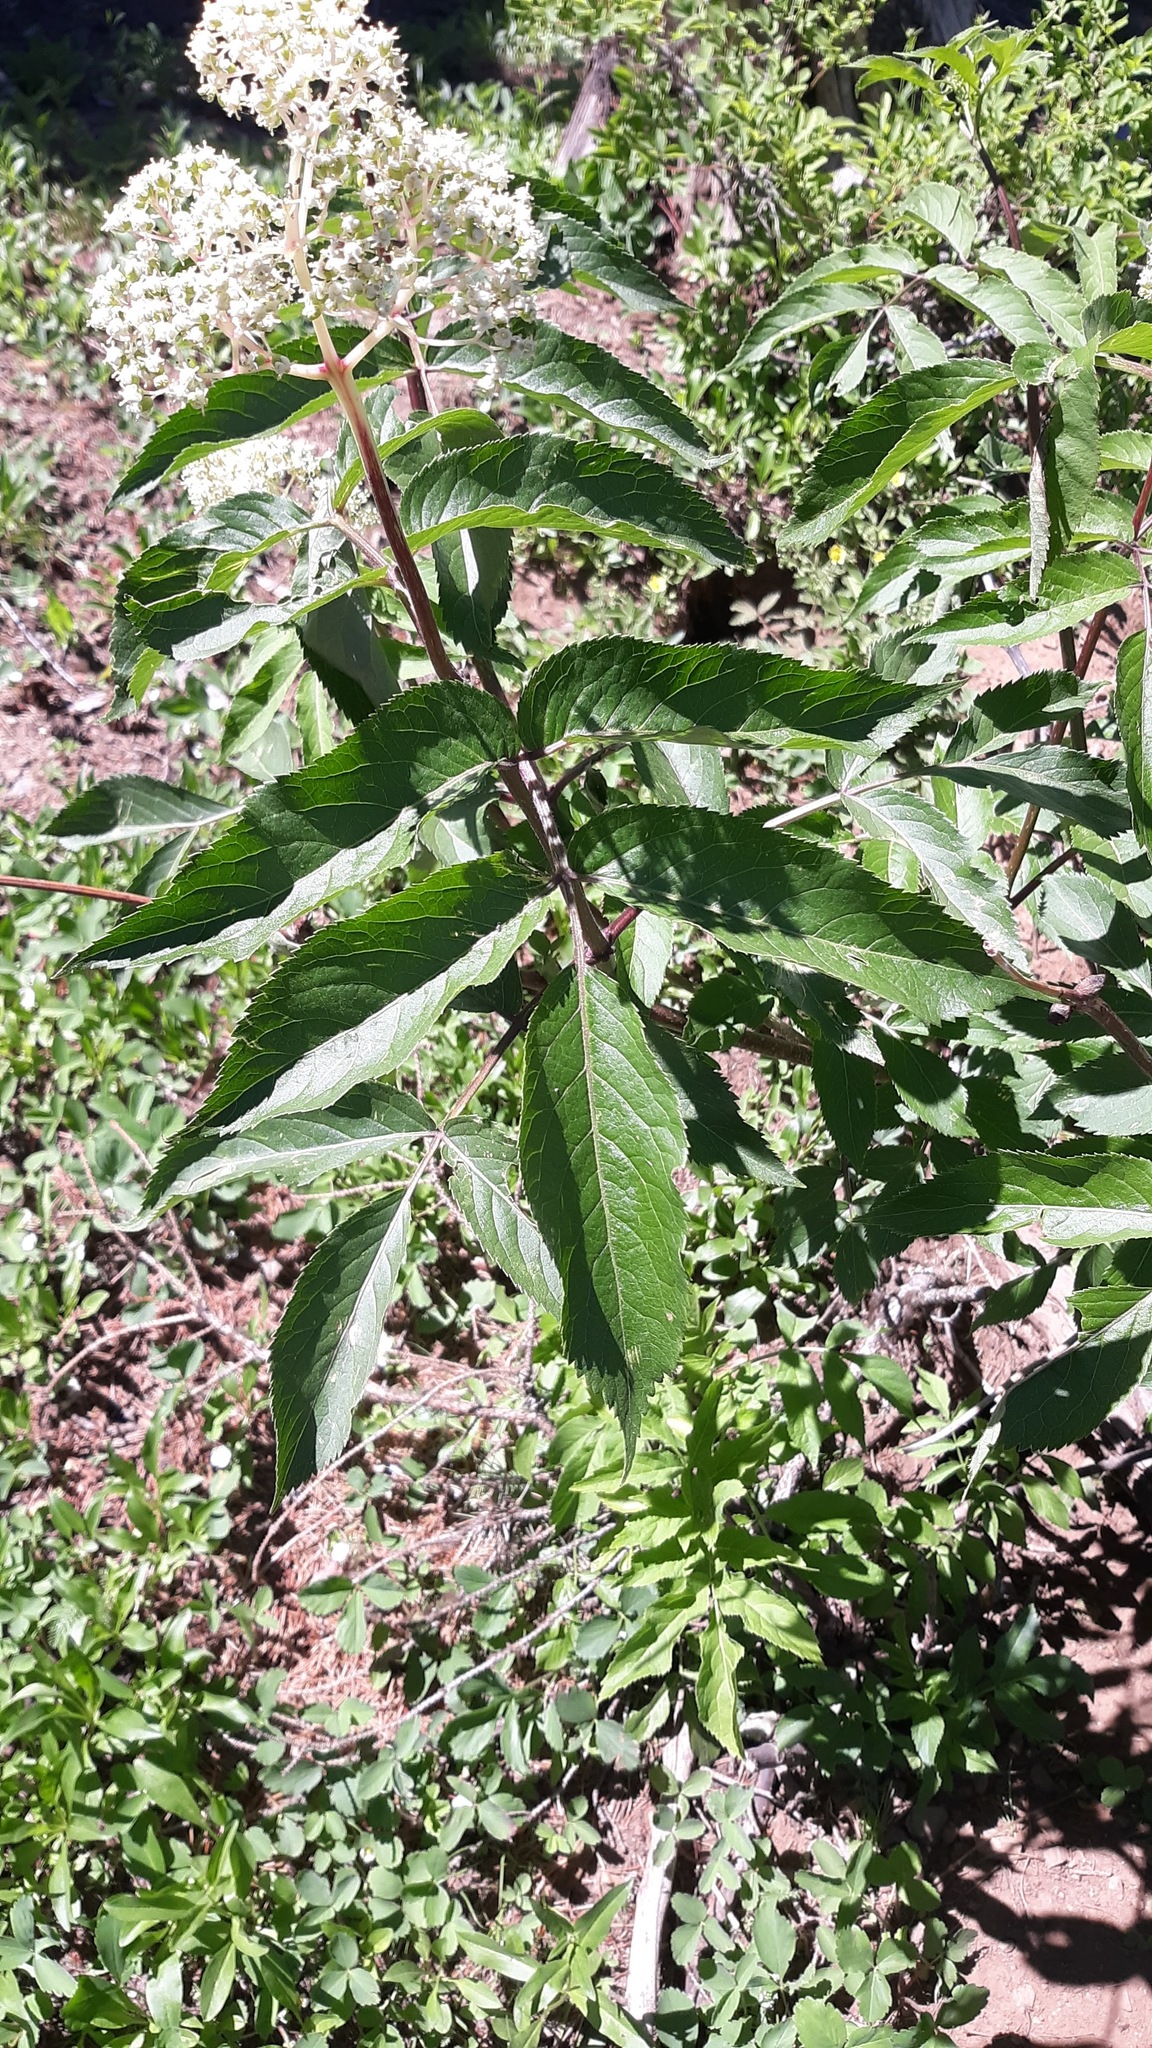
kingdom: Plantae
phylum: Tracheophyta
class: Magnoliopsida
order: Dipsacales
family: Viburnaceae
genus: Sambucus
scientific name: Sambucus racemosa
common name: Red-berried elder
